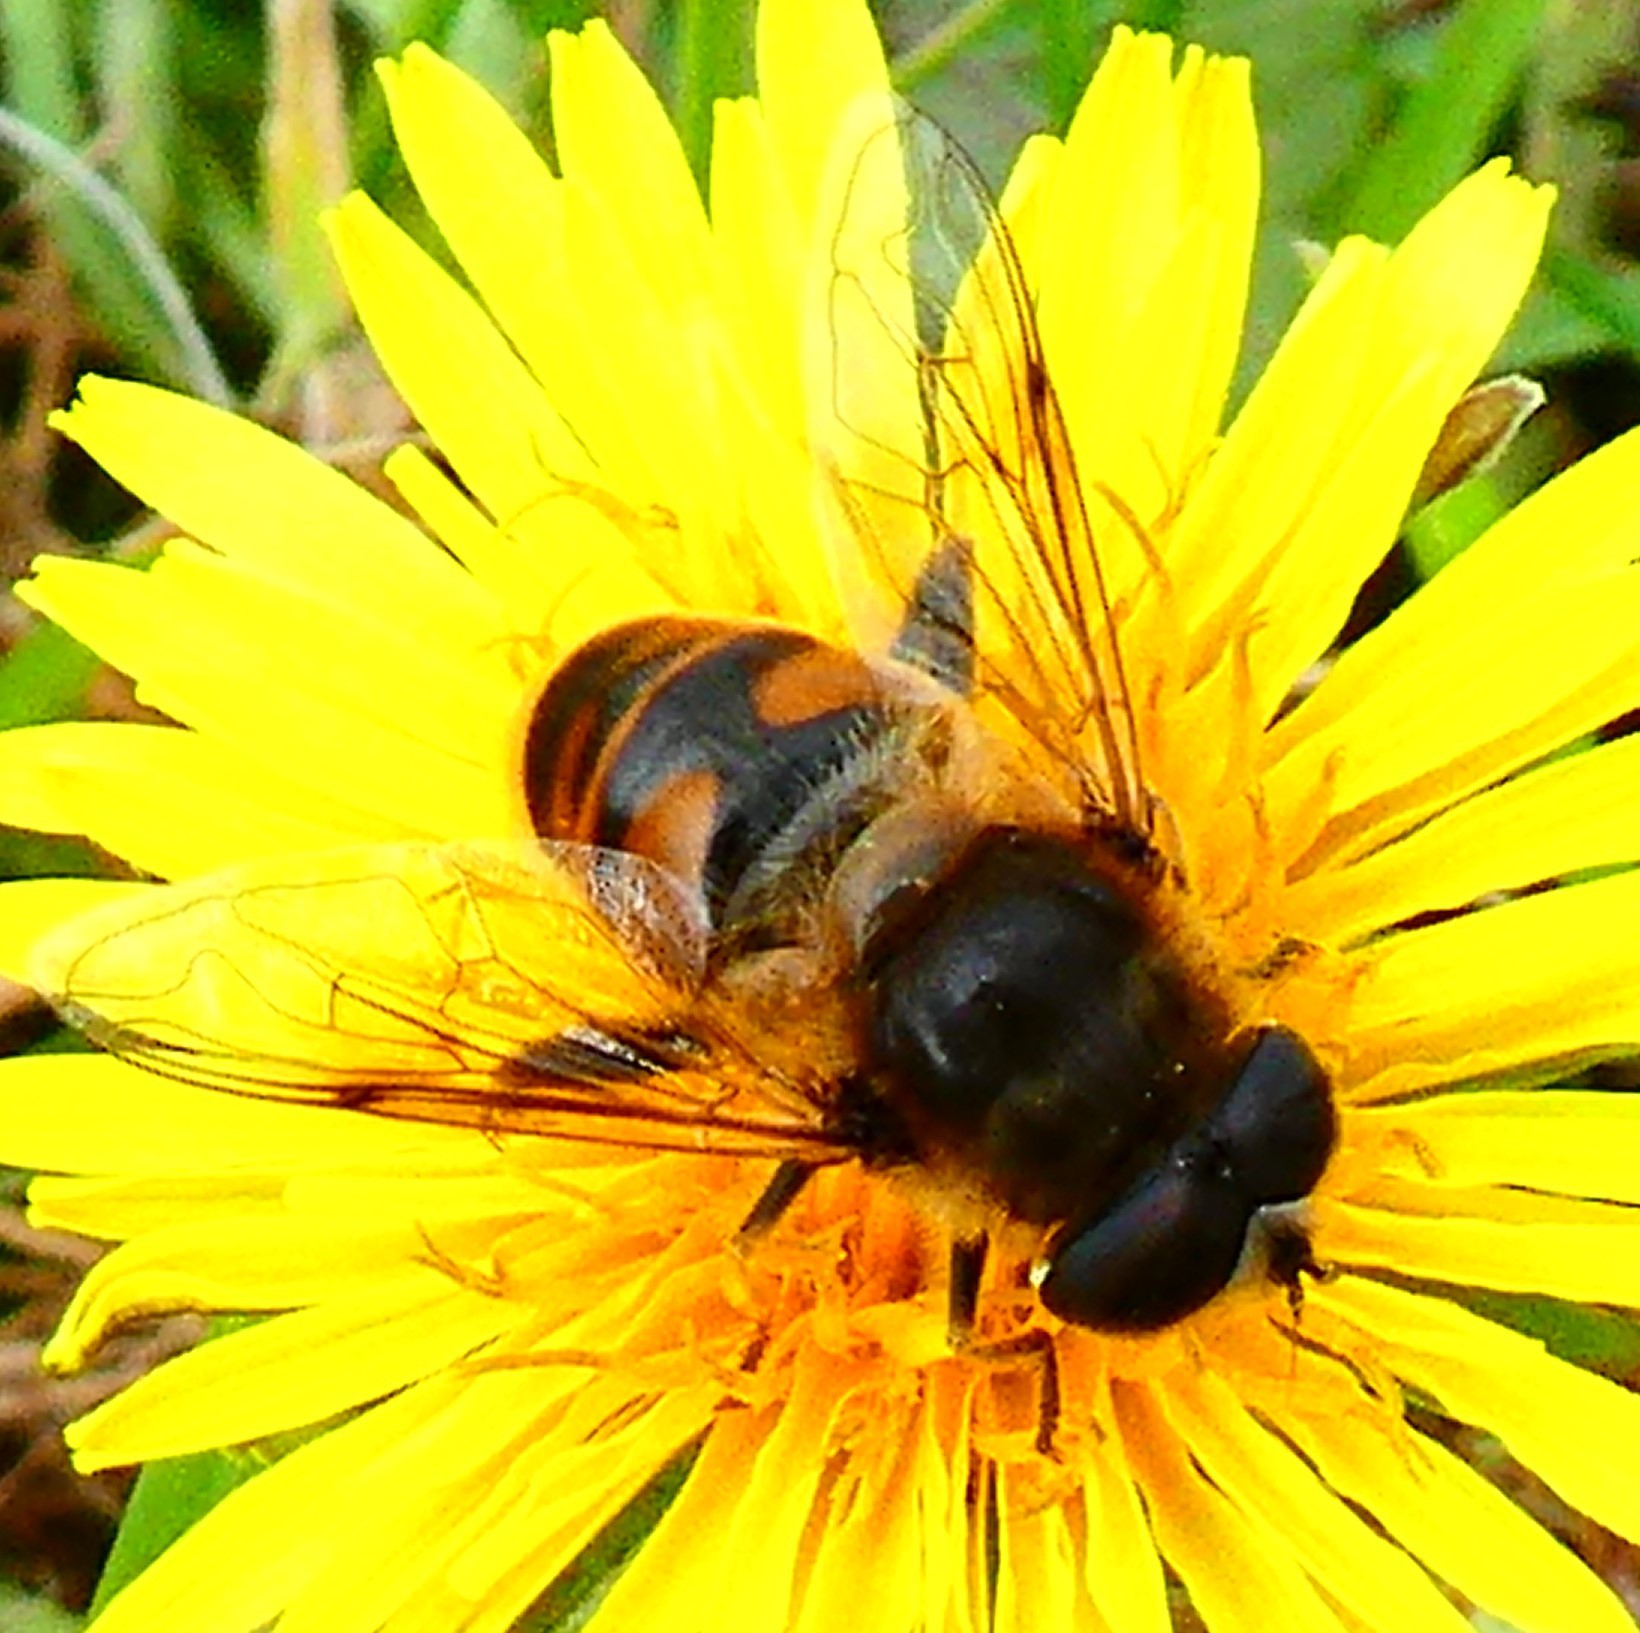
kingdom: Animalia
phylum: Arthropoda
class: Insecta
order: Diptera
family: Syrphidae
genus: Eristalis
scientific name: Eristalis tenax
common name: Drone fly
